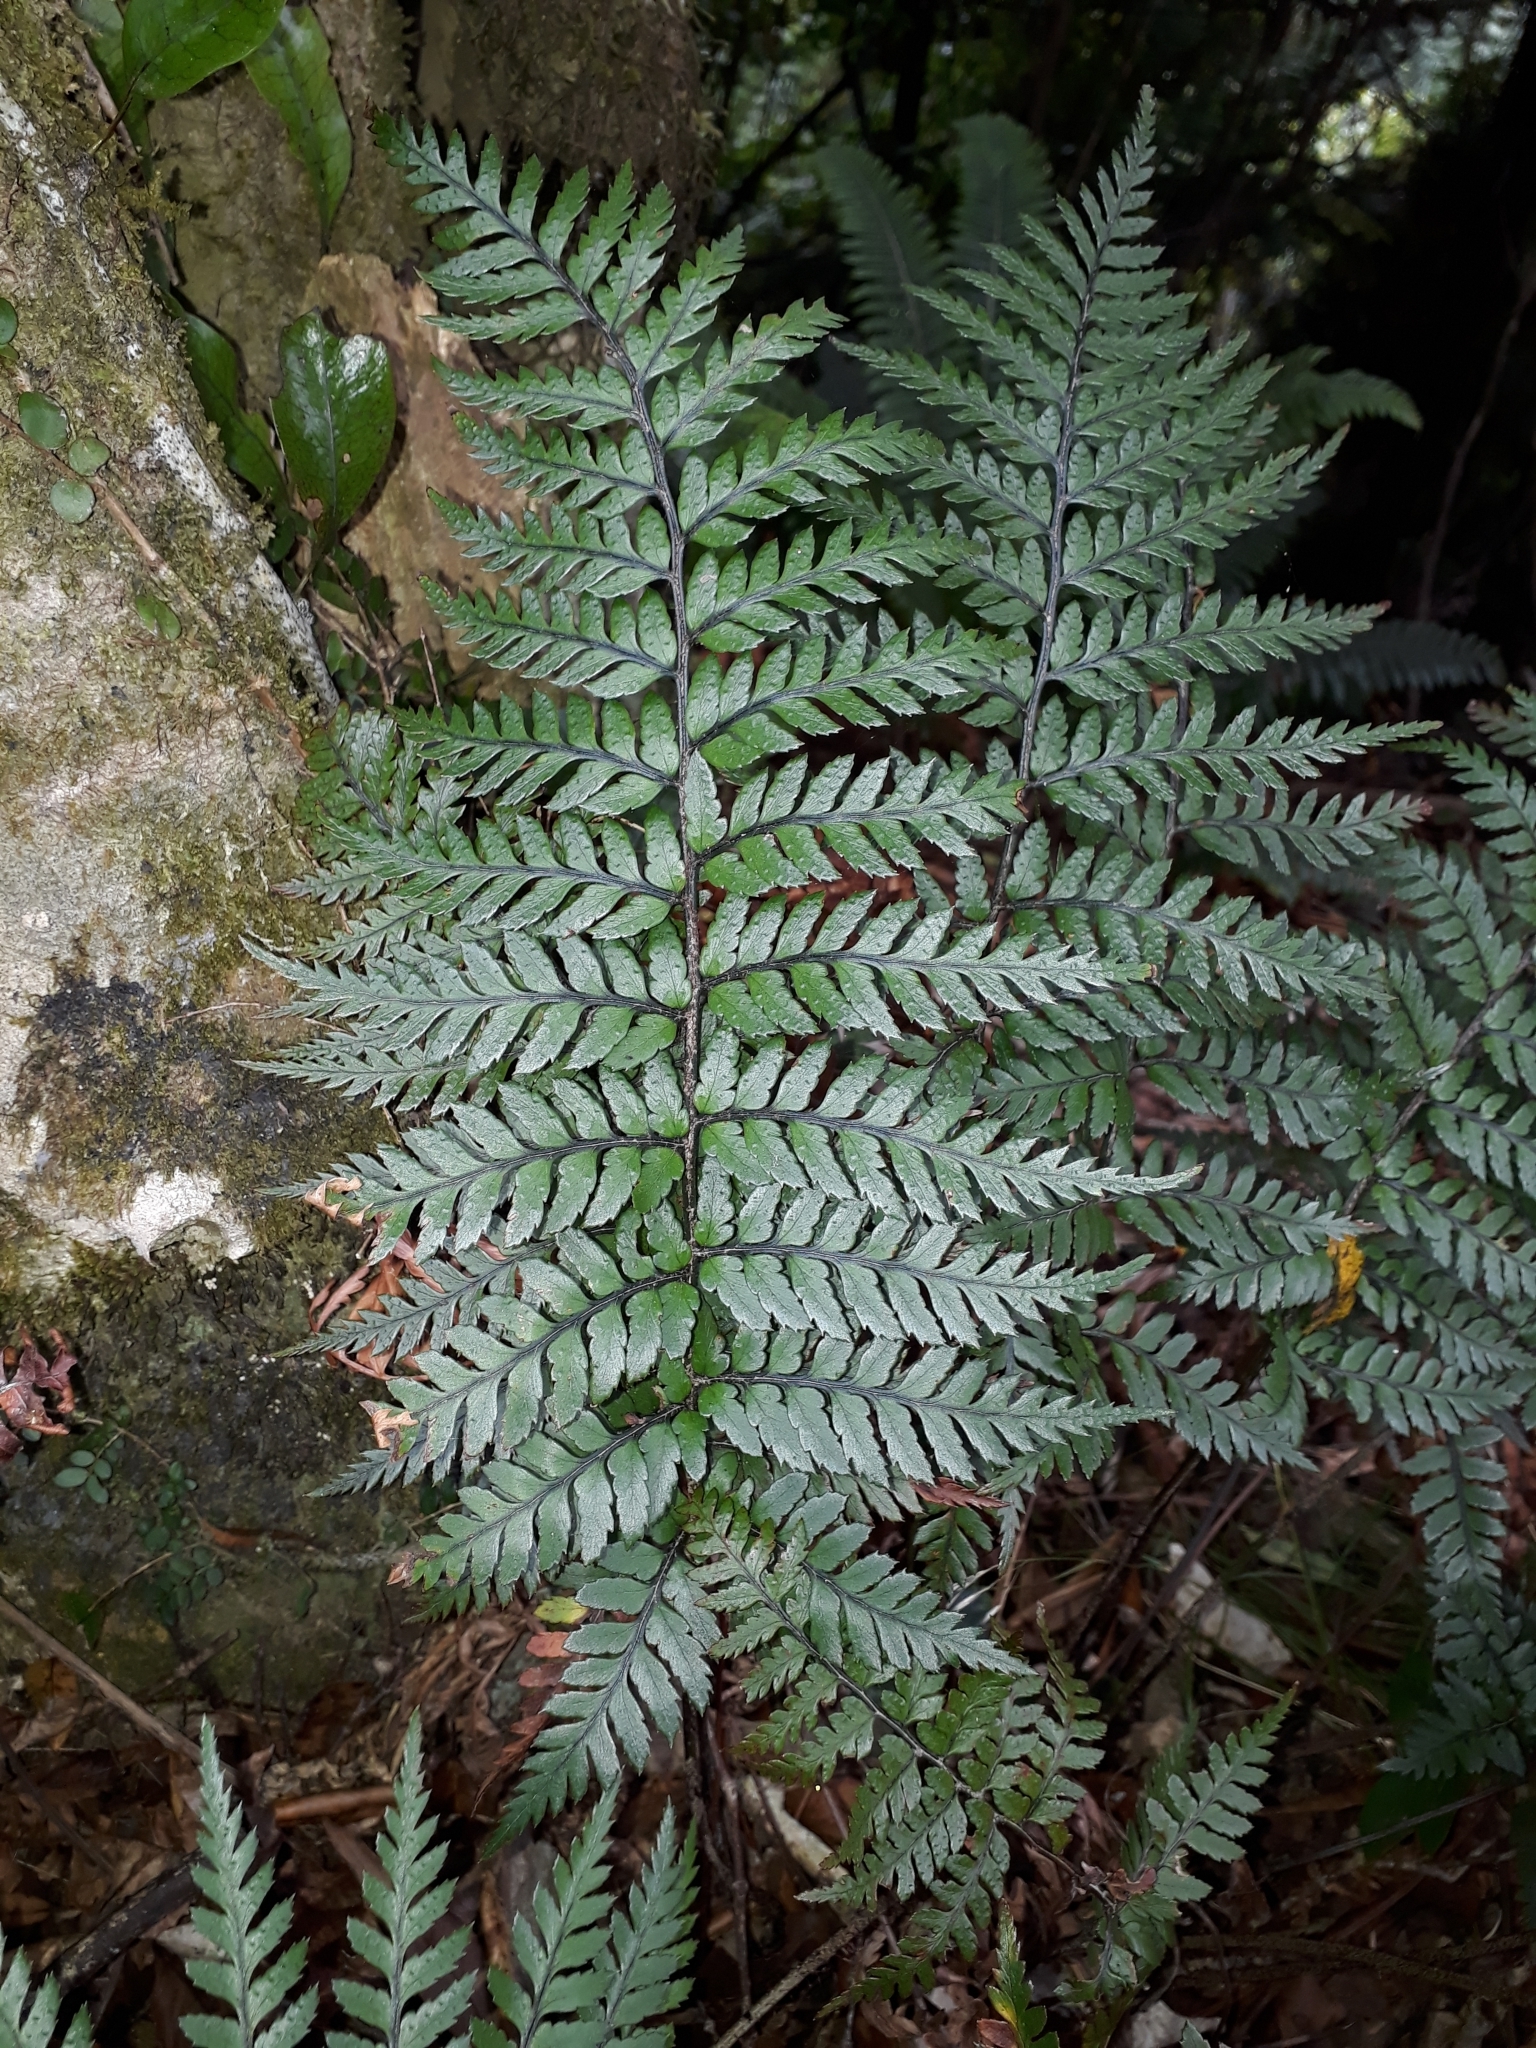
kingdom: Plantae
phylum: Tracheophyta
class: Polypodiopsida
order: Polypodiales
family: Dryopteridaceae
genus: Polystichum
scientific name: Polystichum neozelandicum
